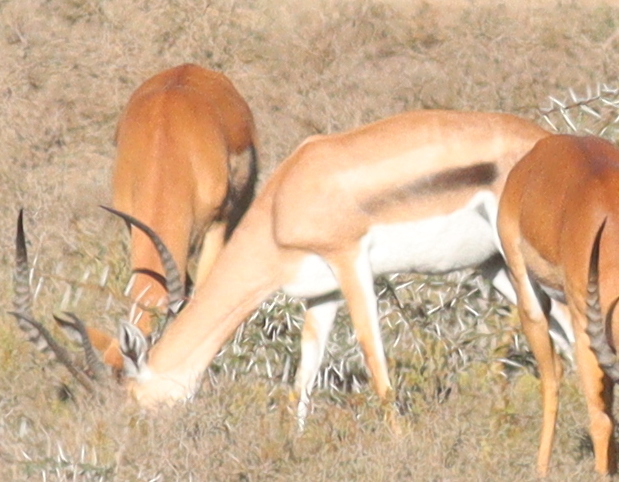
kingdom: Animalia
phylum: Chordata
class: Mammalia
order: Artiodactyla
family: Bovidae
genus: Nanger
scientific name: Nanger granti
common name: Grant's gazelle
